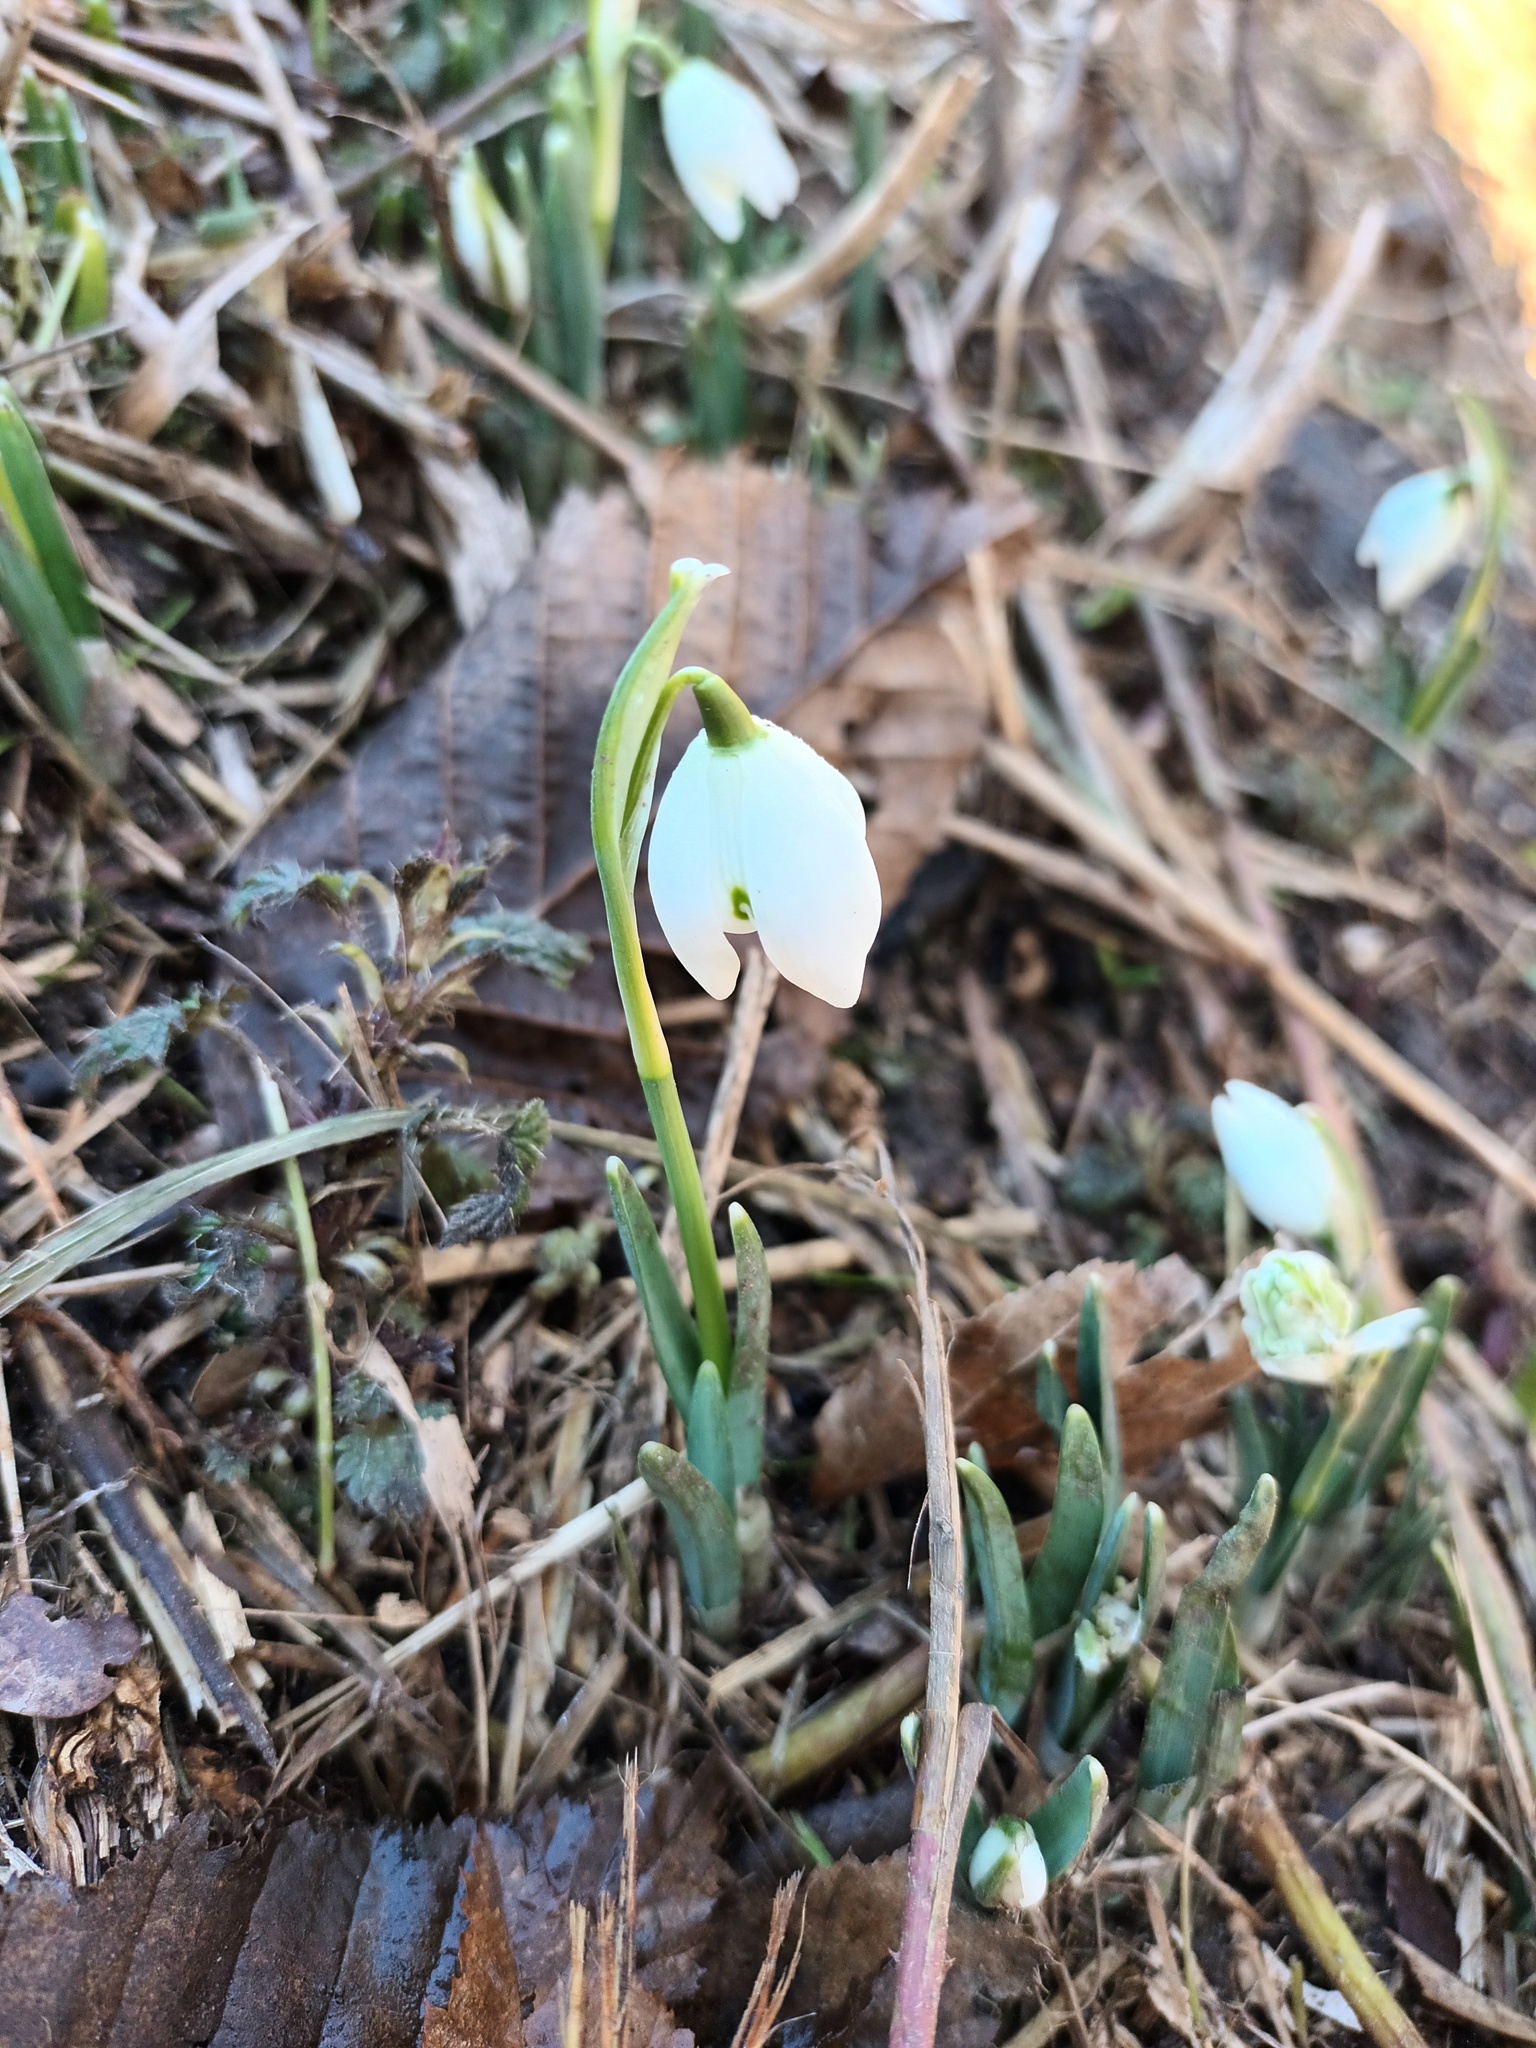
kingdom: Plantae
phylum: Tracheophyta
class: Liliopsida
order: Asparagales
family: Amaryllidaceae
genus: Galanthus
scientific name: Galanthus nivalis
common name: Snowdrop
